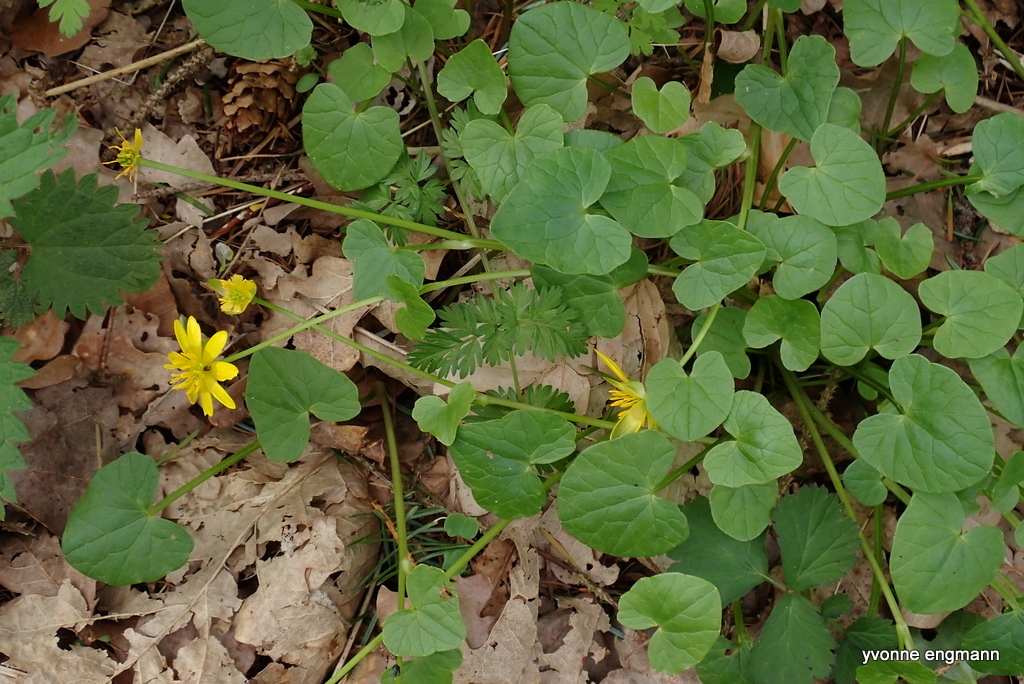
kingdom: Plantae
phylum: Tracheophyta
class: Magnoliopsida
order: Ranunculales
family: Ranunculaceae
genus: Ficaria
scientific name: Ficaria verna
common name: Lesser celandine
